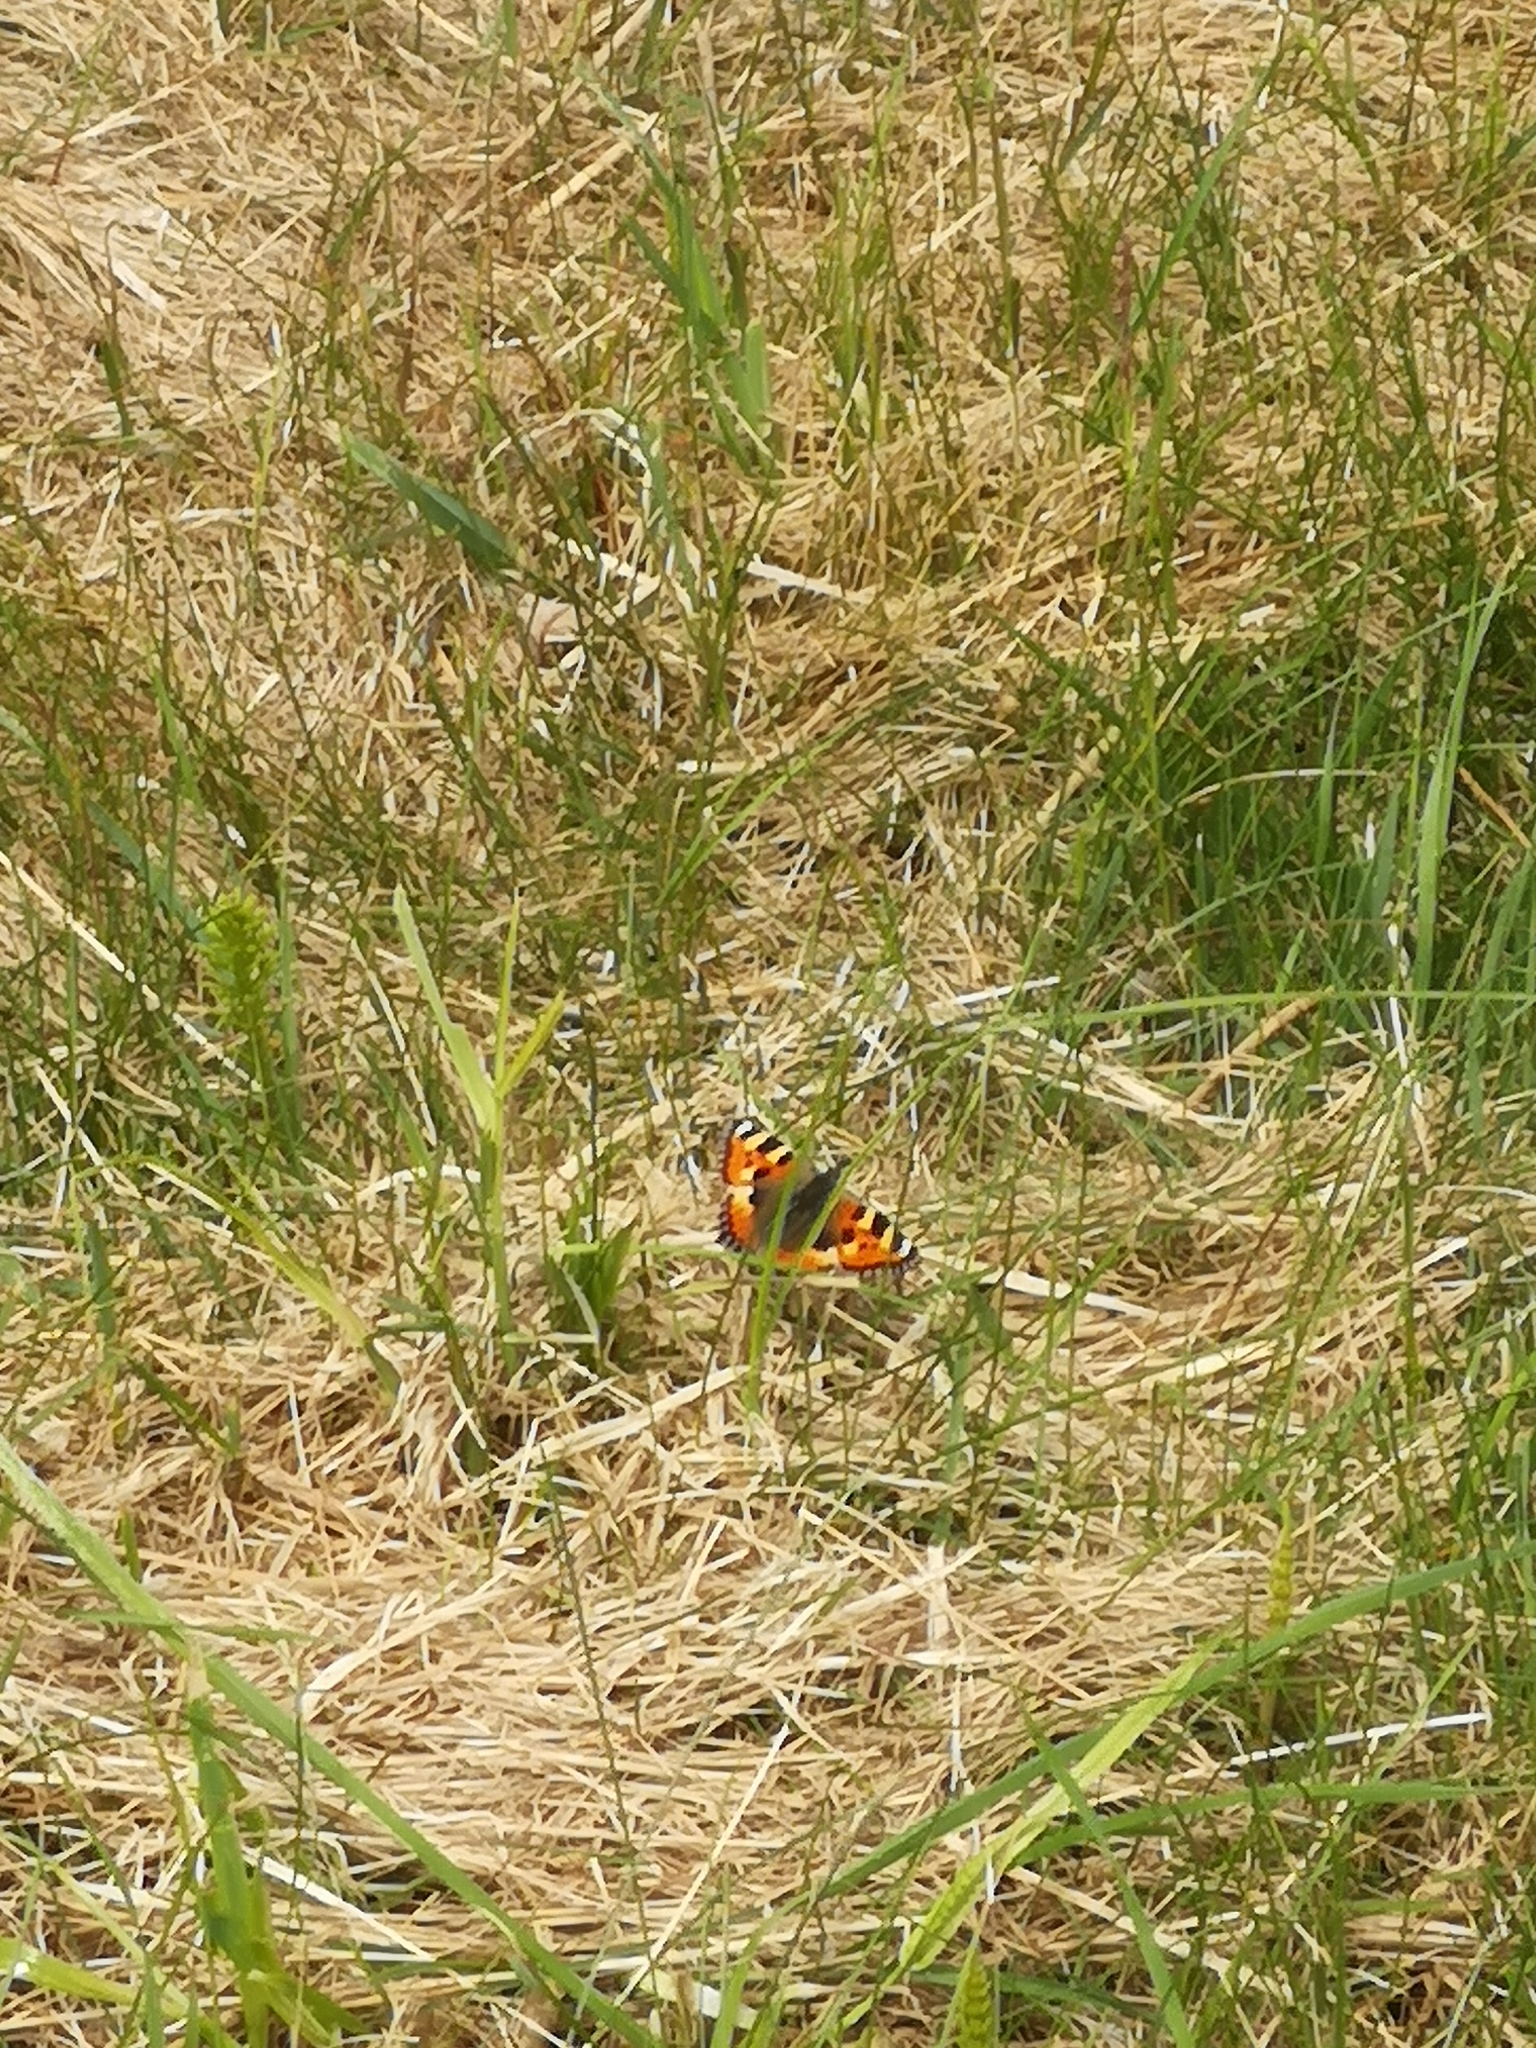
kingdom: Animalia
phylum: Arthropoda
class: Insecta
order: Lepidoptera
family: Nymphalidae
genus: Aglais
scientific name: Aglais urticae
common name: Small tortoiseshell
